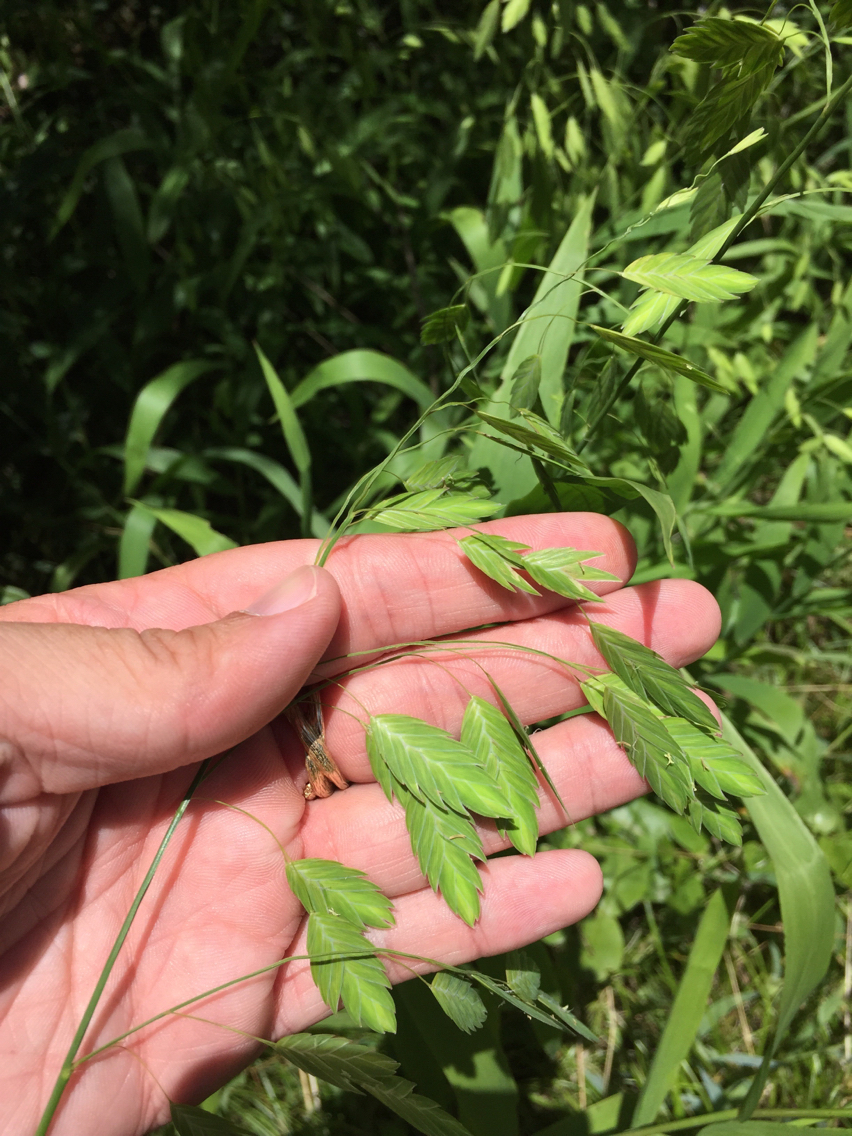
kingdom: Plantae
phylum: Tracheophyta
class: Liliopsida
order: Poales
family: Poaceae
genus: Chasmanthium
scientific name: Chasmanthium latifolium
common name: Broad-leaved chasmanthium
